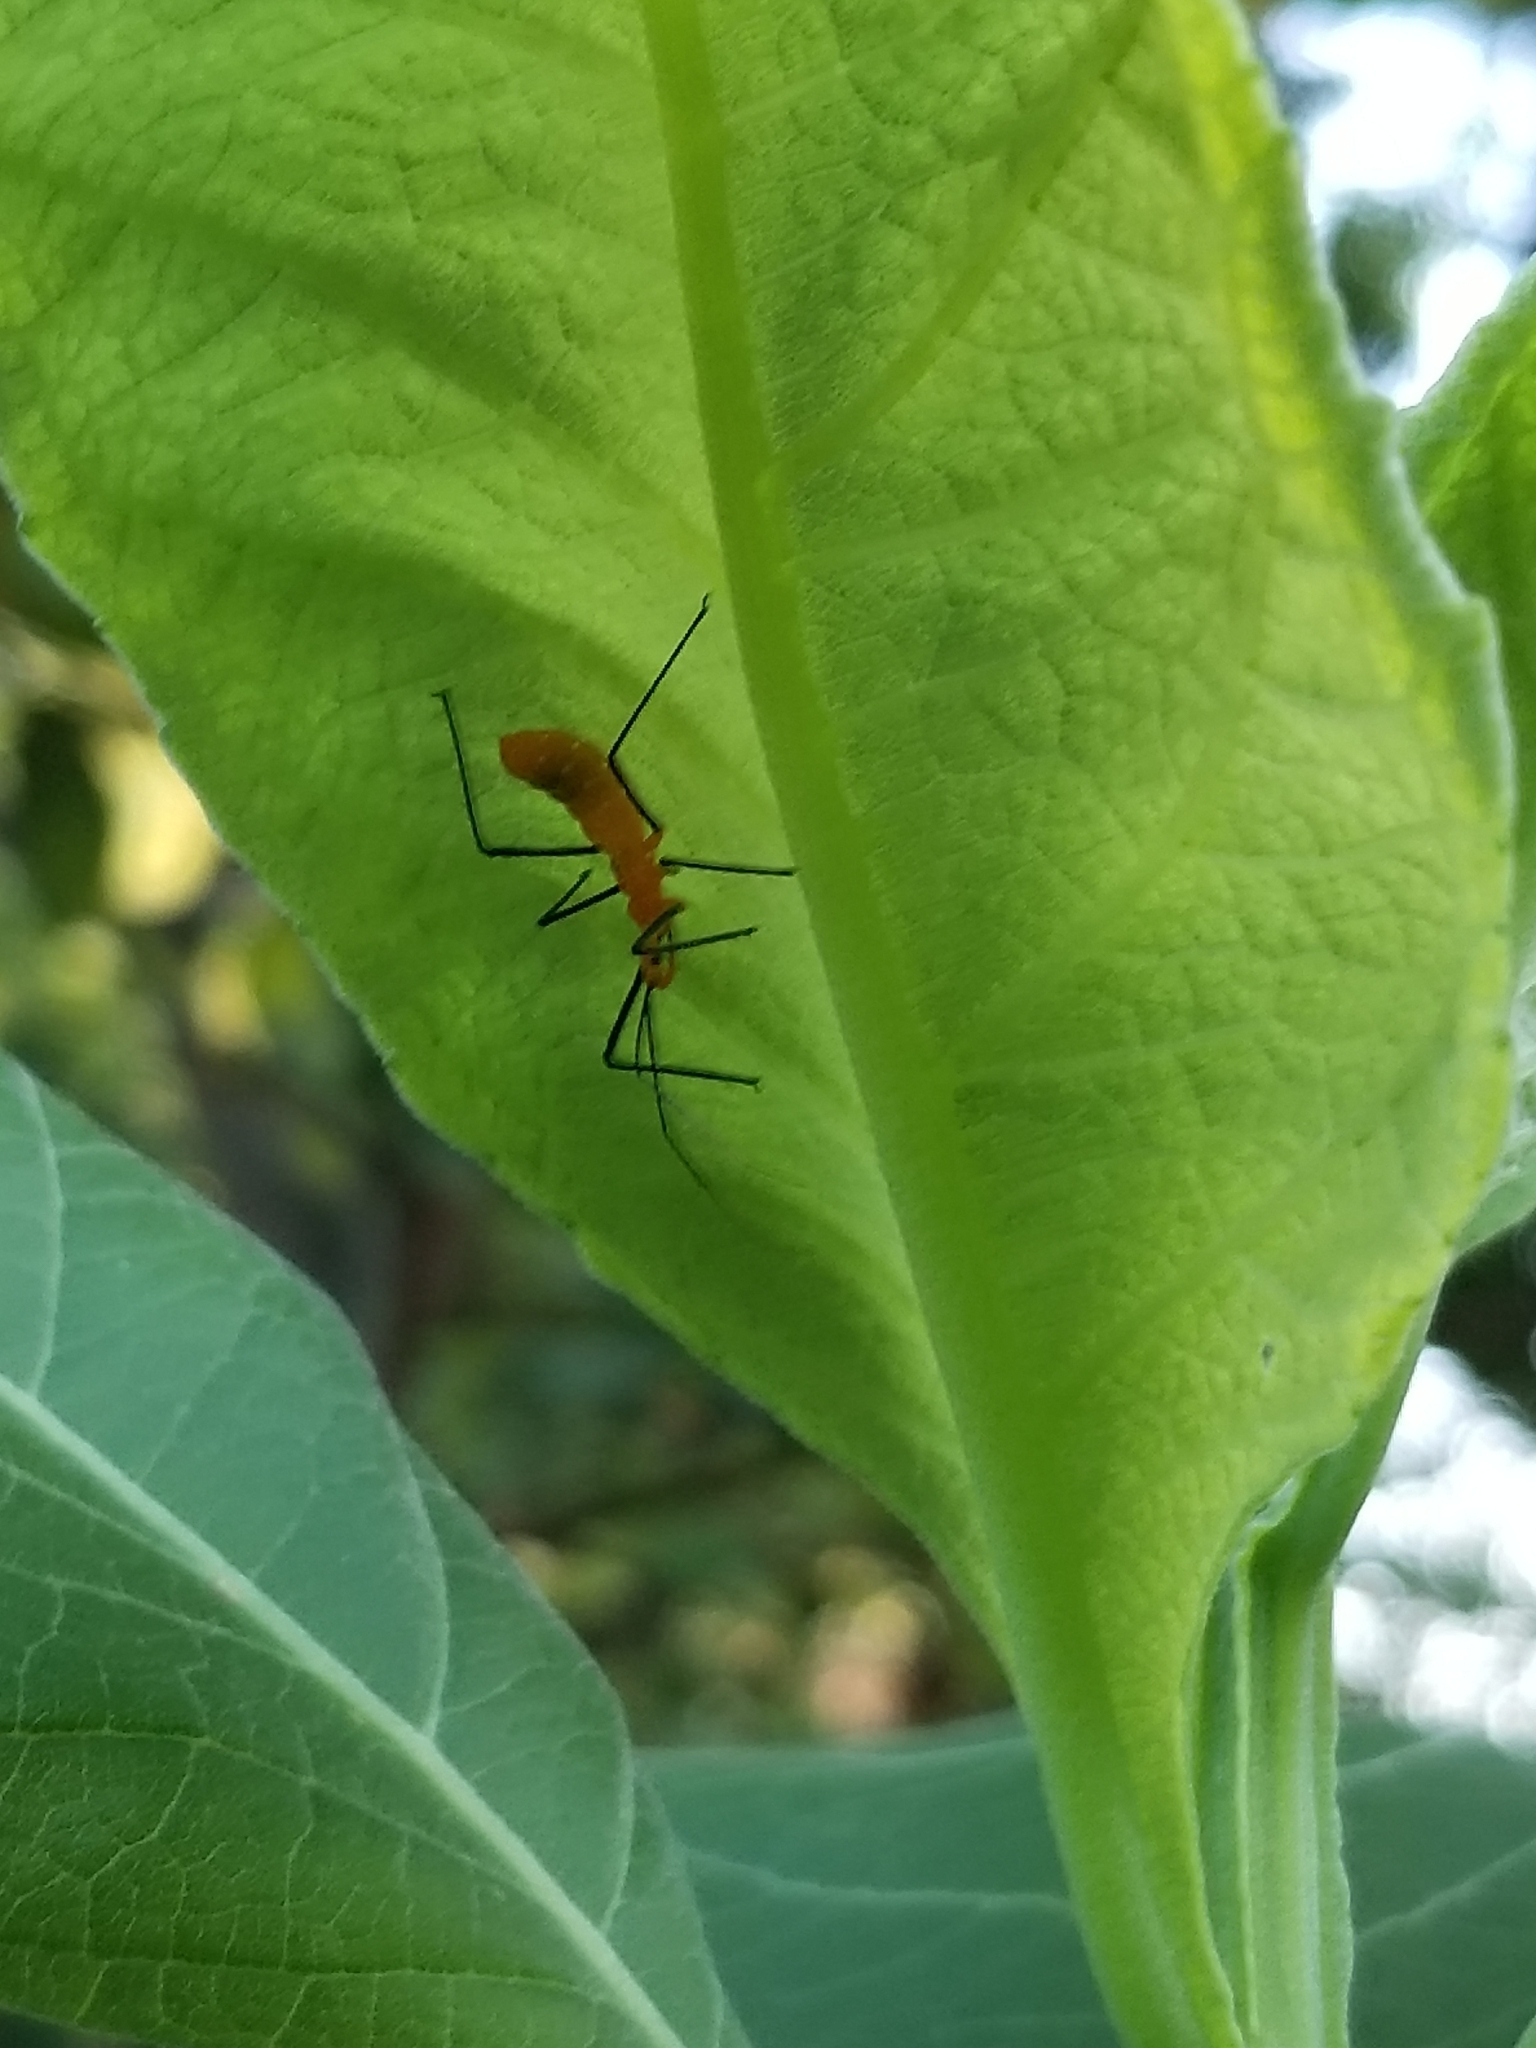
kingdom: Animalia
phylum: Arthropoda
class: Insecta
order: Hemiptera
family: Reduviidae
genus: Zelus
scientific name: Zelus longipes
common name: Milkweed assassin bug
